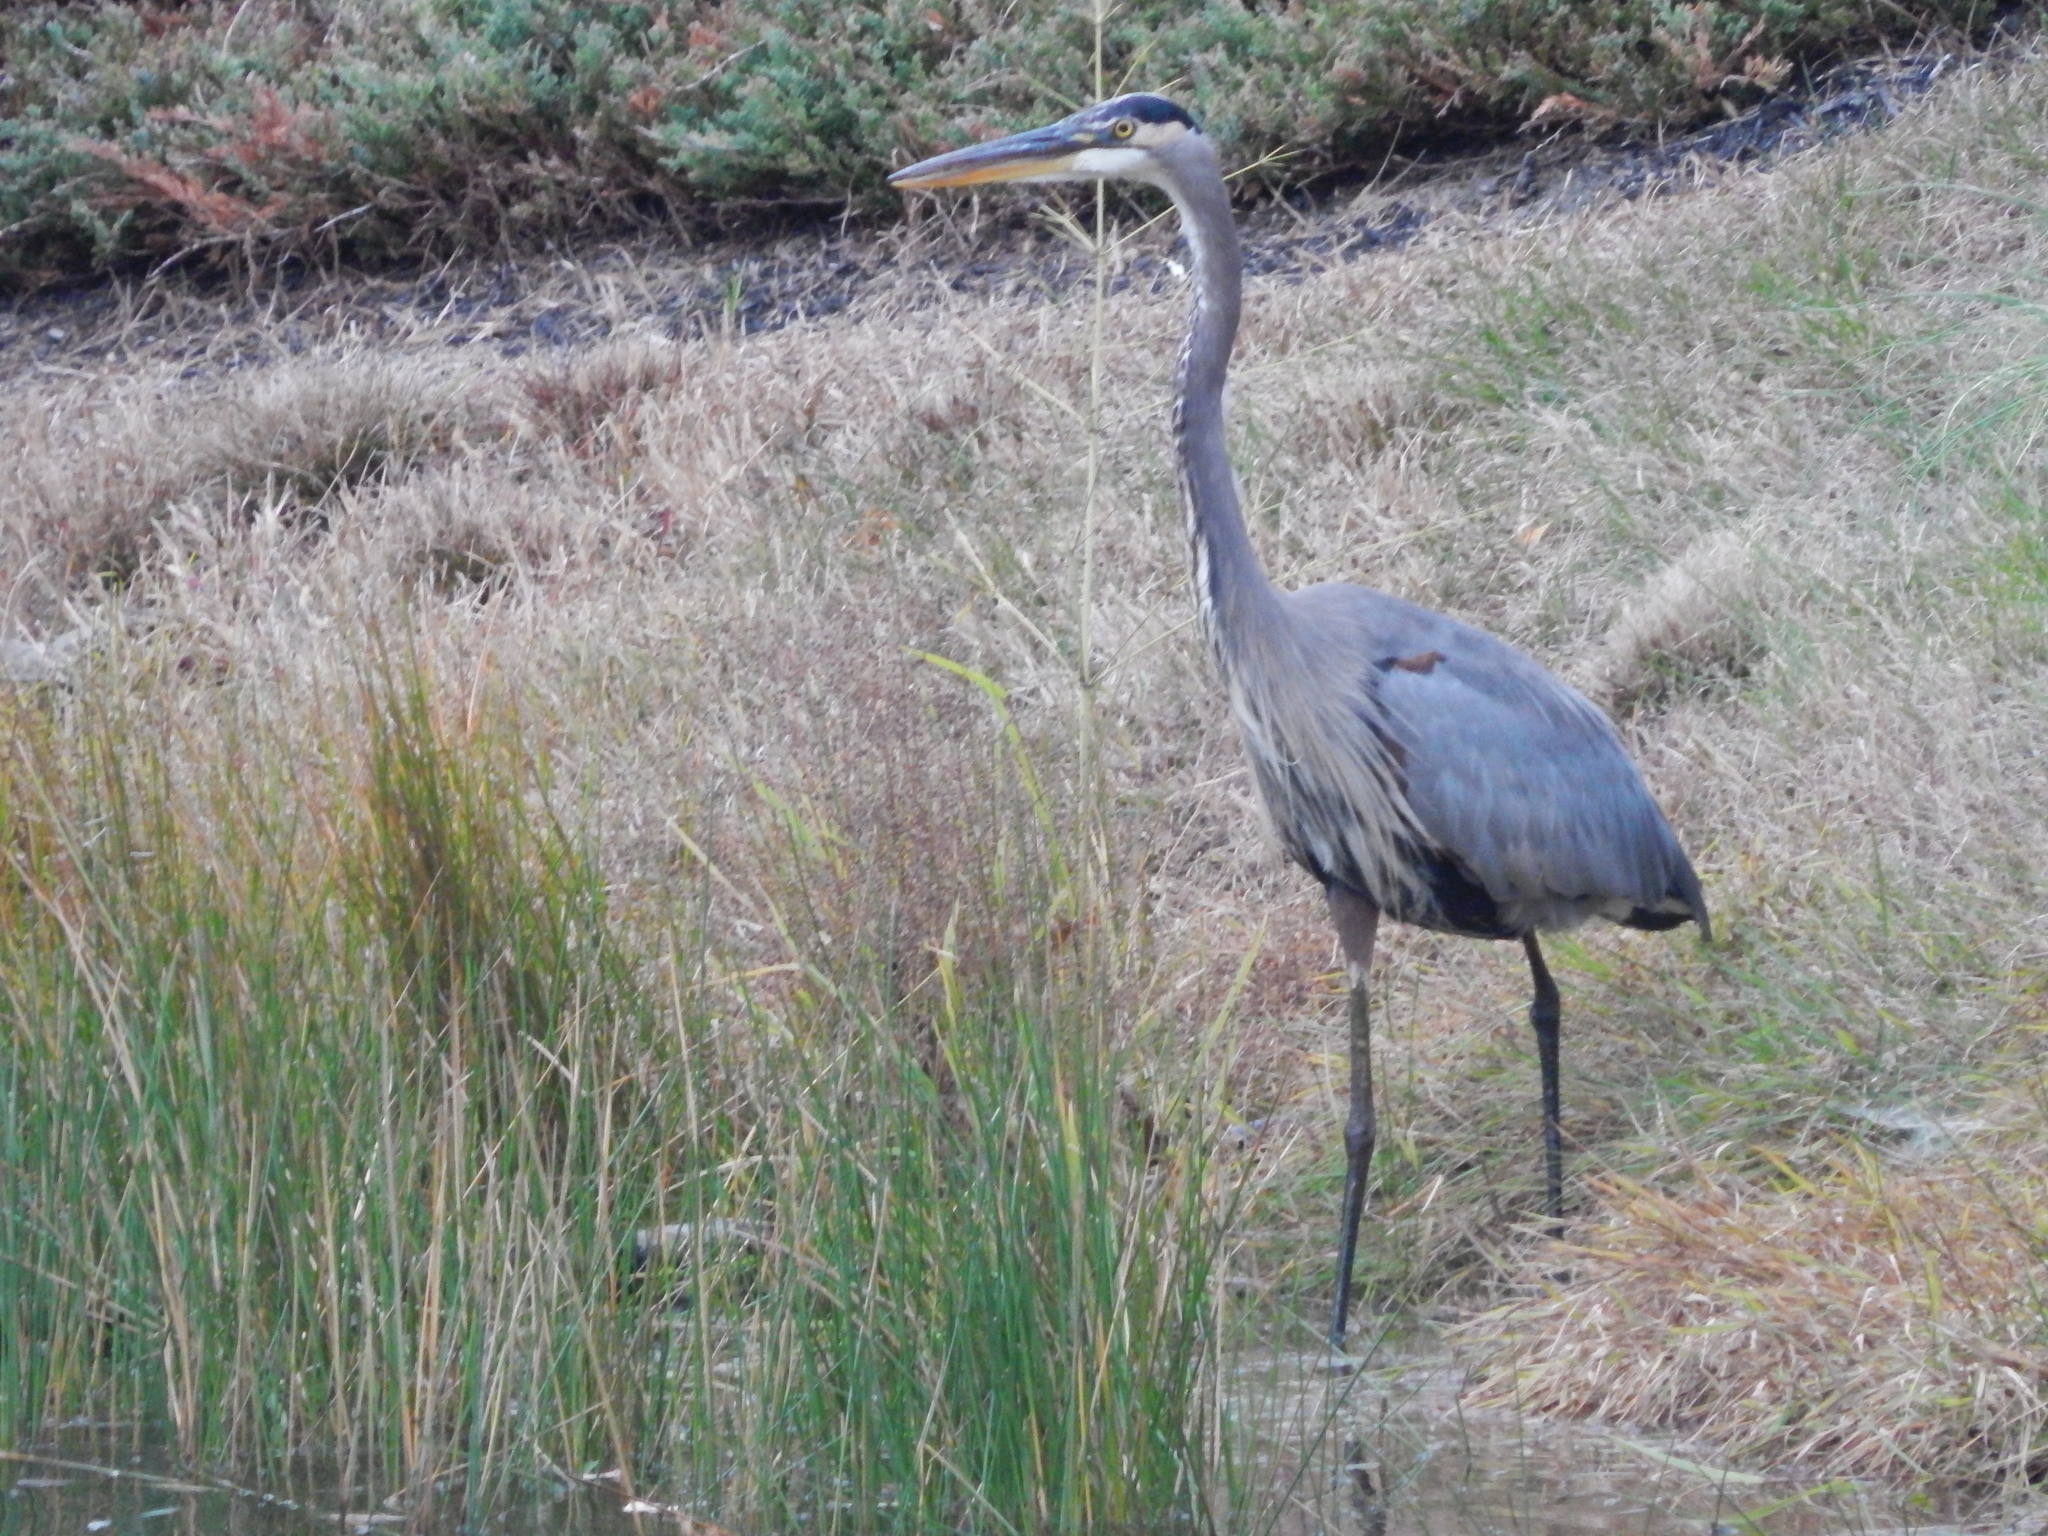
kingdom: Animalia
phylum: Chordata
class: Aves
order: Pelecaniformes
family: Ardeidae
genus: Ardea
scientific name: Ardea herodias
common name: Great blue heron
